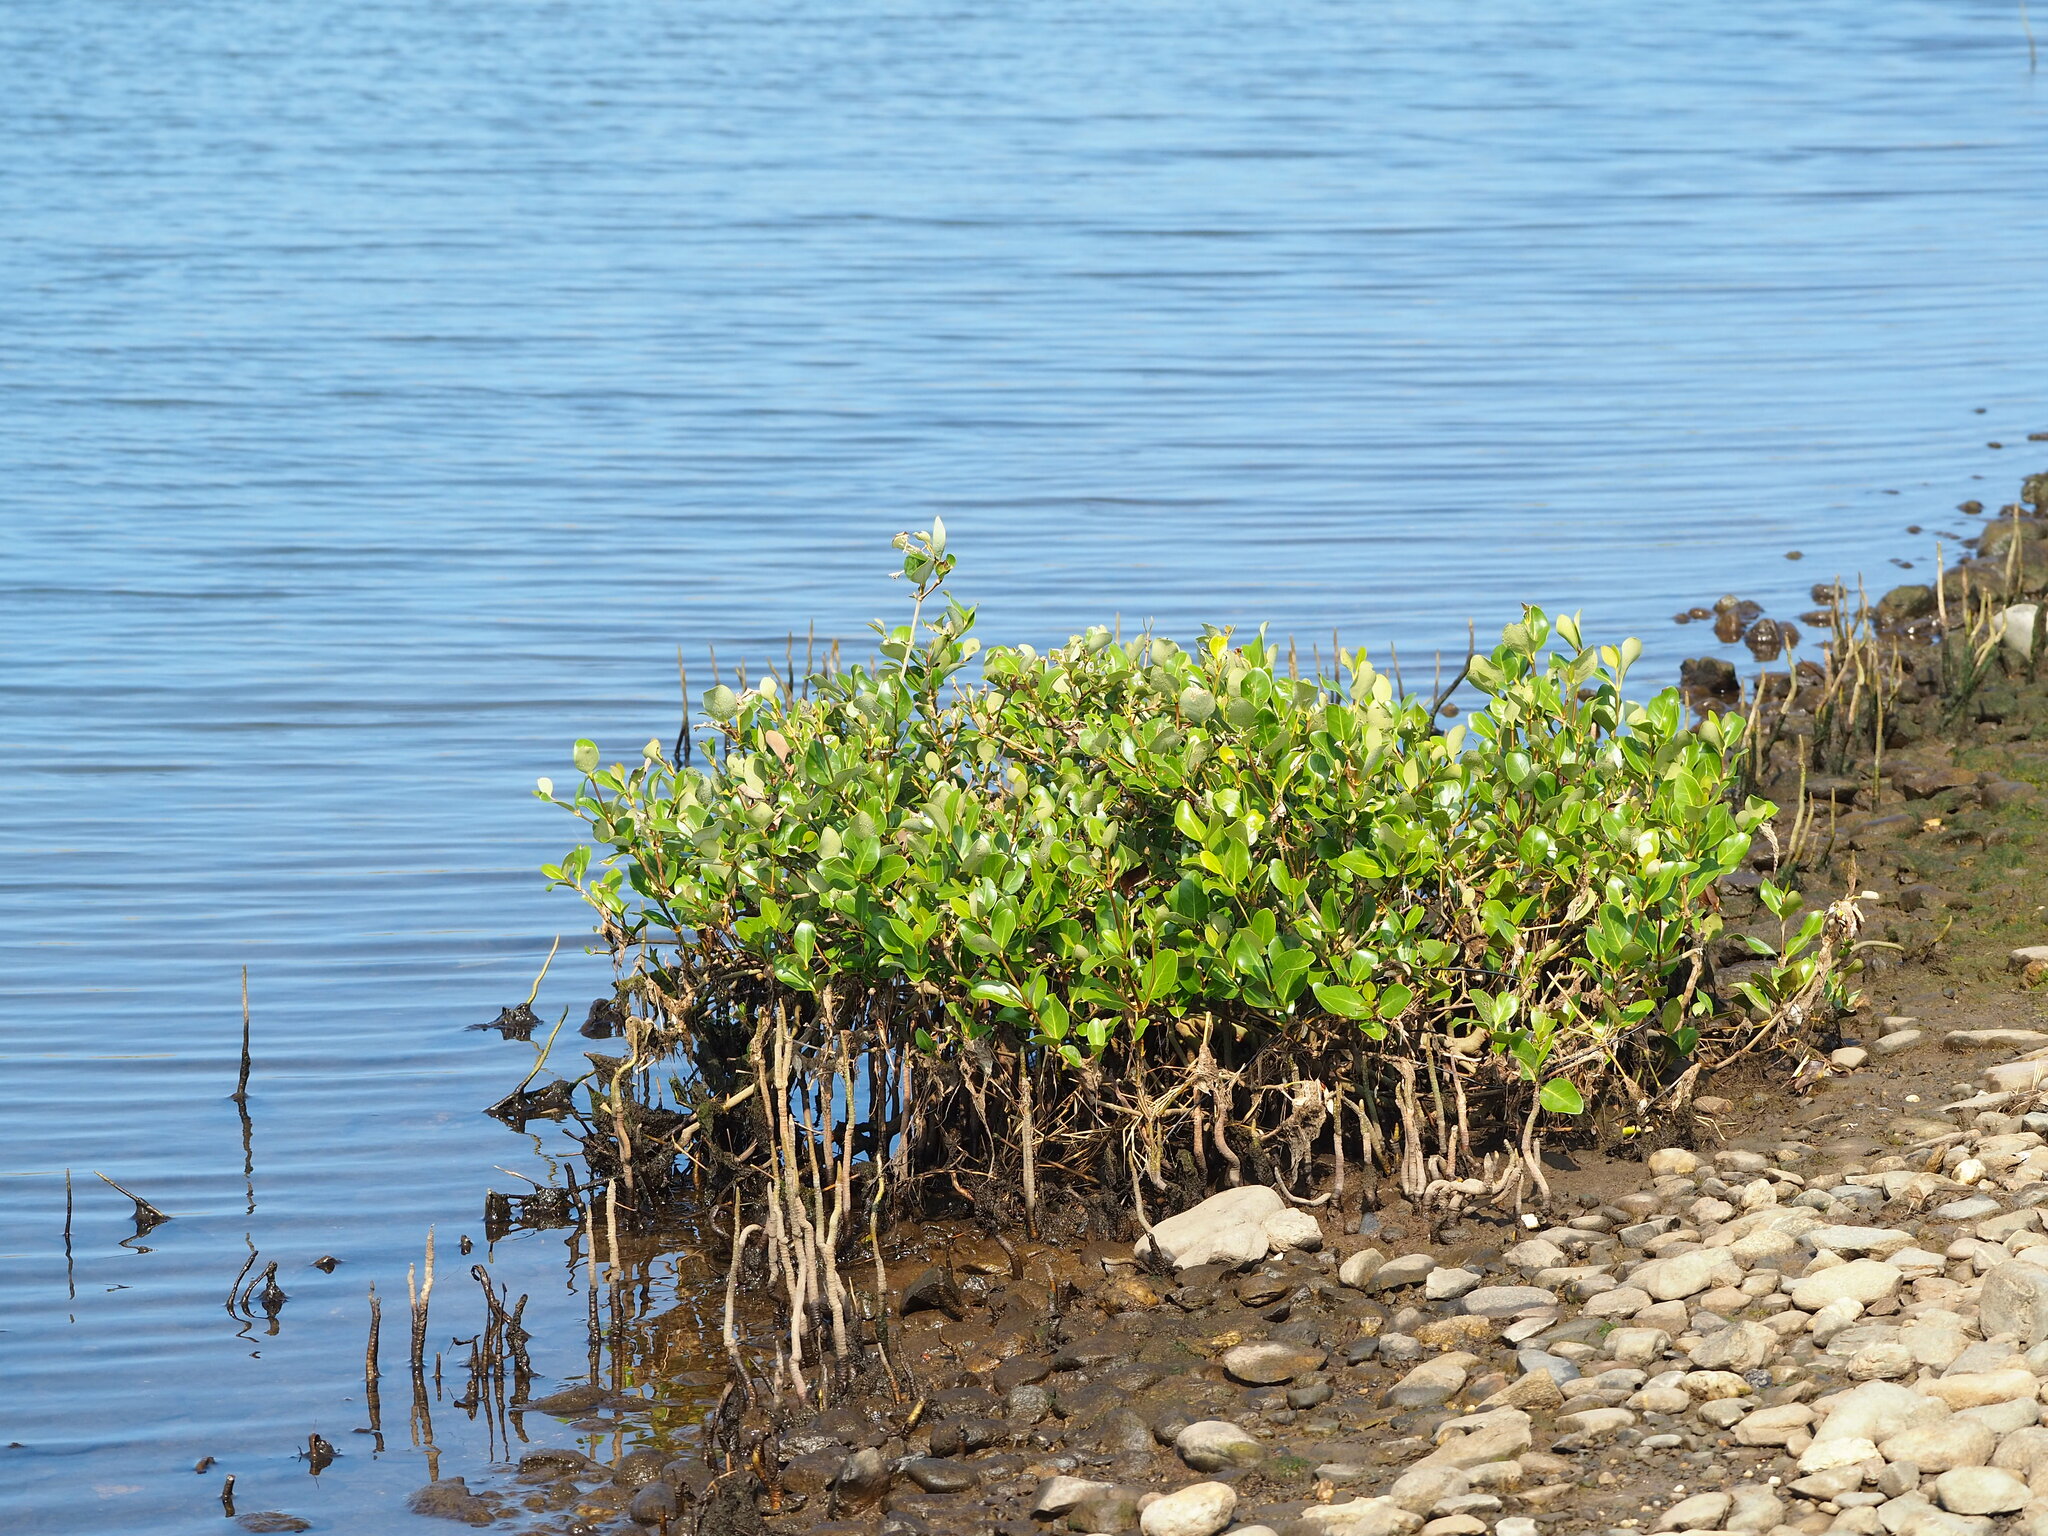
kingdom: Plantae
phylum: Tracheophyta
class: Magnoliopsida
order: Lamiales
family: Acanthaceae
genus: Avicennia
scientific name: Avicennia marina
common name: Gray mangrove
